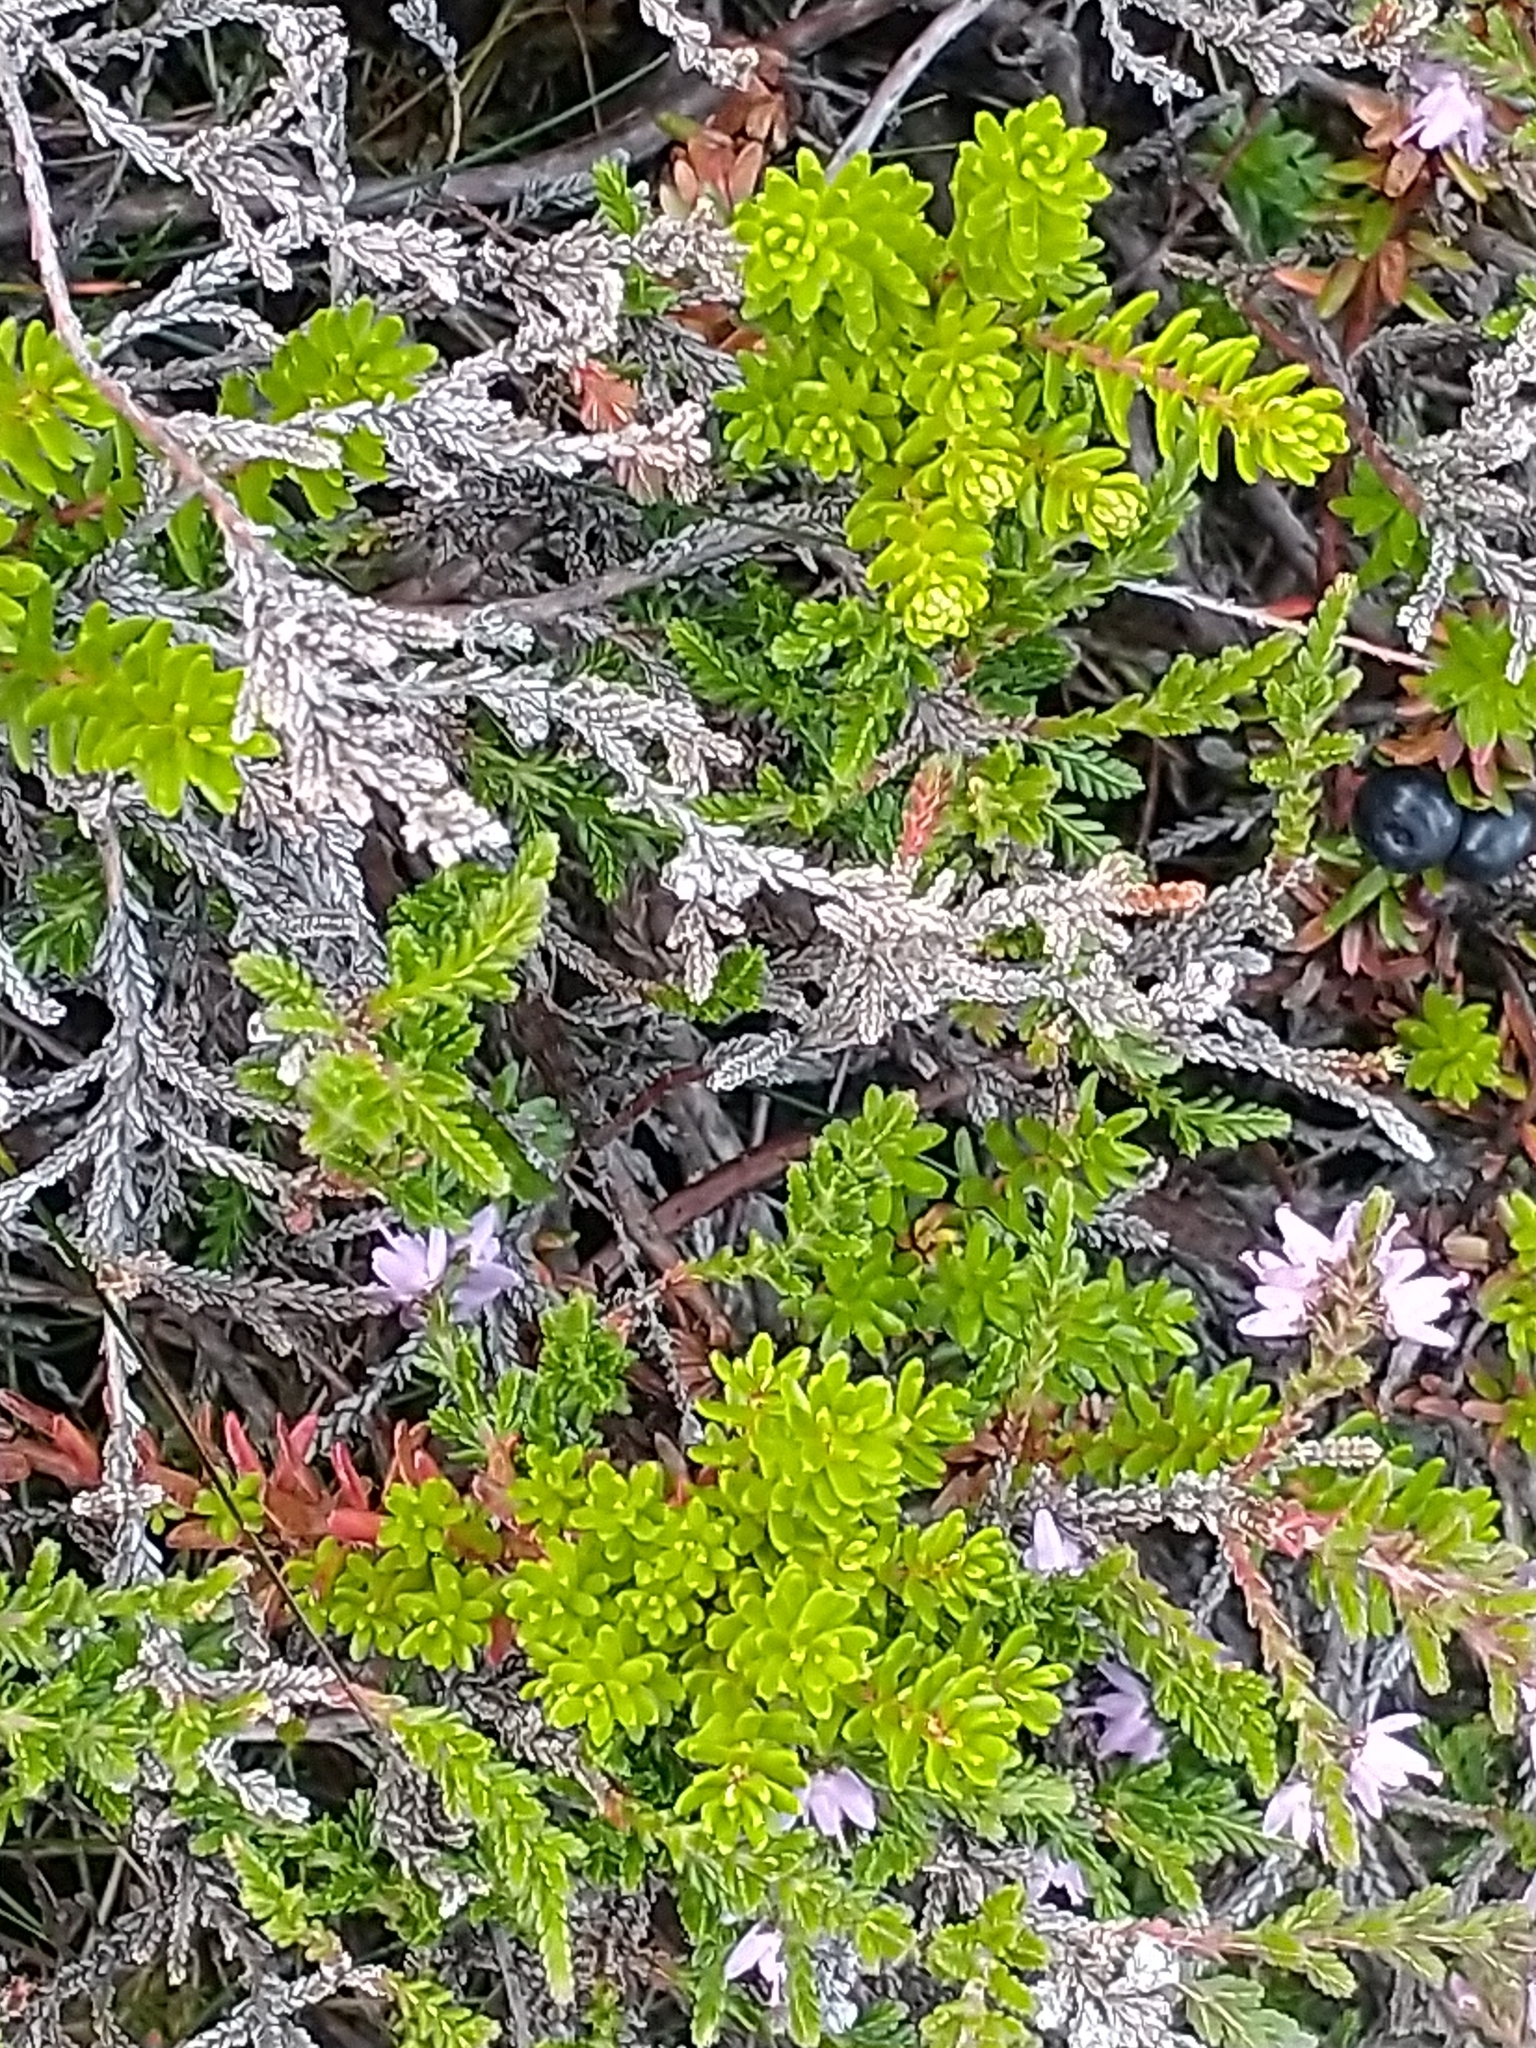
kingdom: Plantae
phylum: Tracheophyta
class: Magnoliopsida
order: Ericales
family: Ericaceae
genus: Empetrum
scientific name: Empetrum nigrum
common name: Black crowberry
